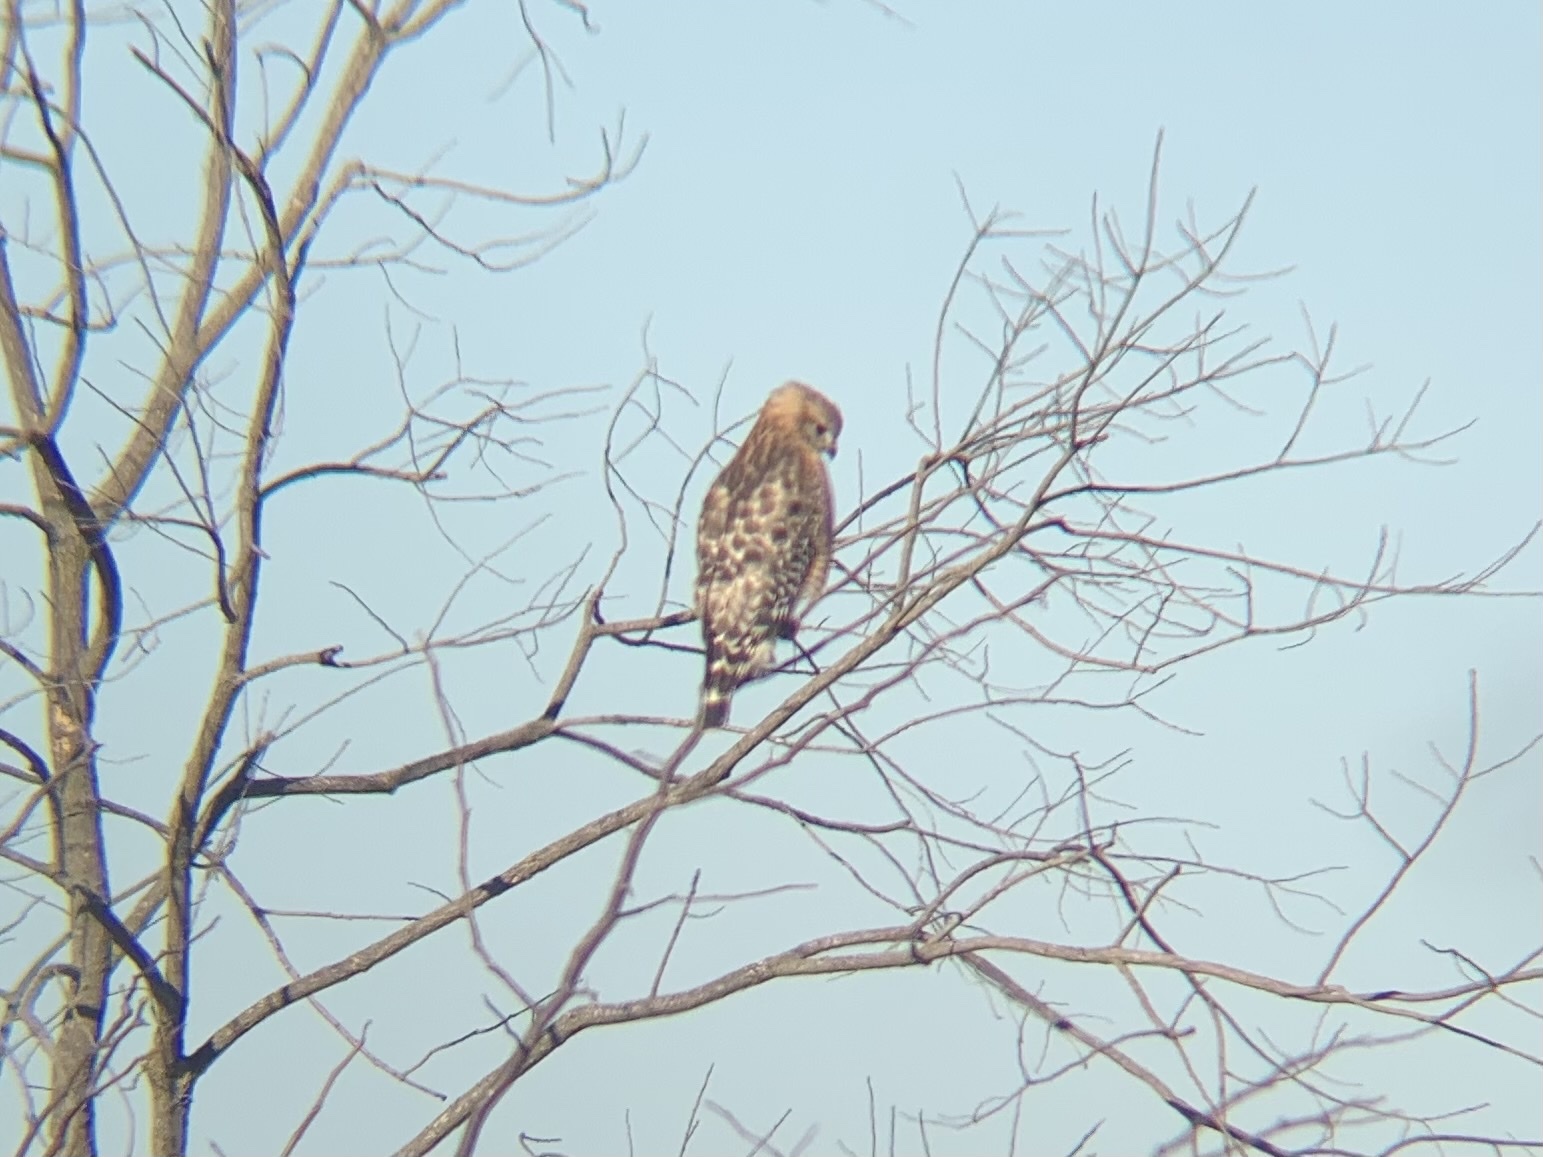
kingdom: Animalia
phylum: Chordata
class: Aves
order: Accipitriformes
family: Accipitridae
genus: Buteo
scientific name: Buteo lineatus
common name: Red-shouldered hawk
